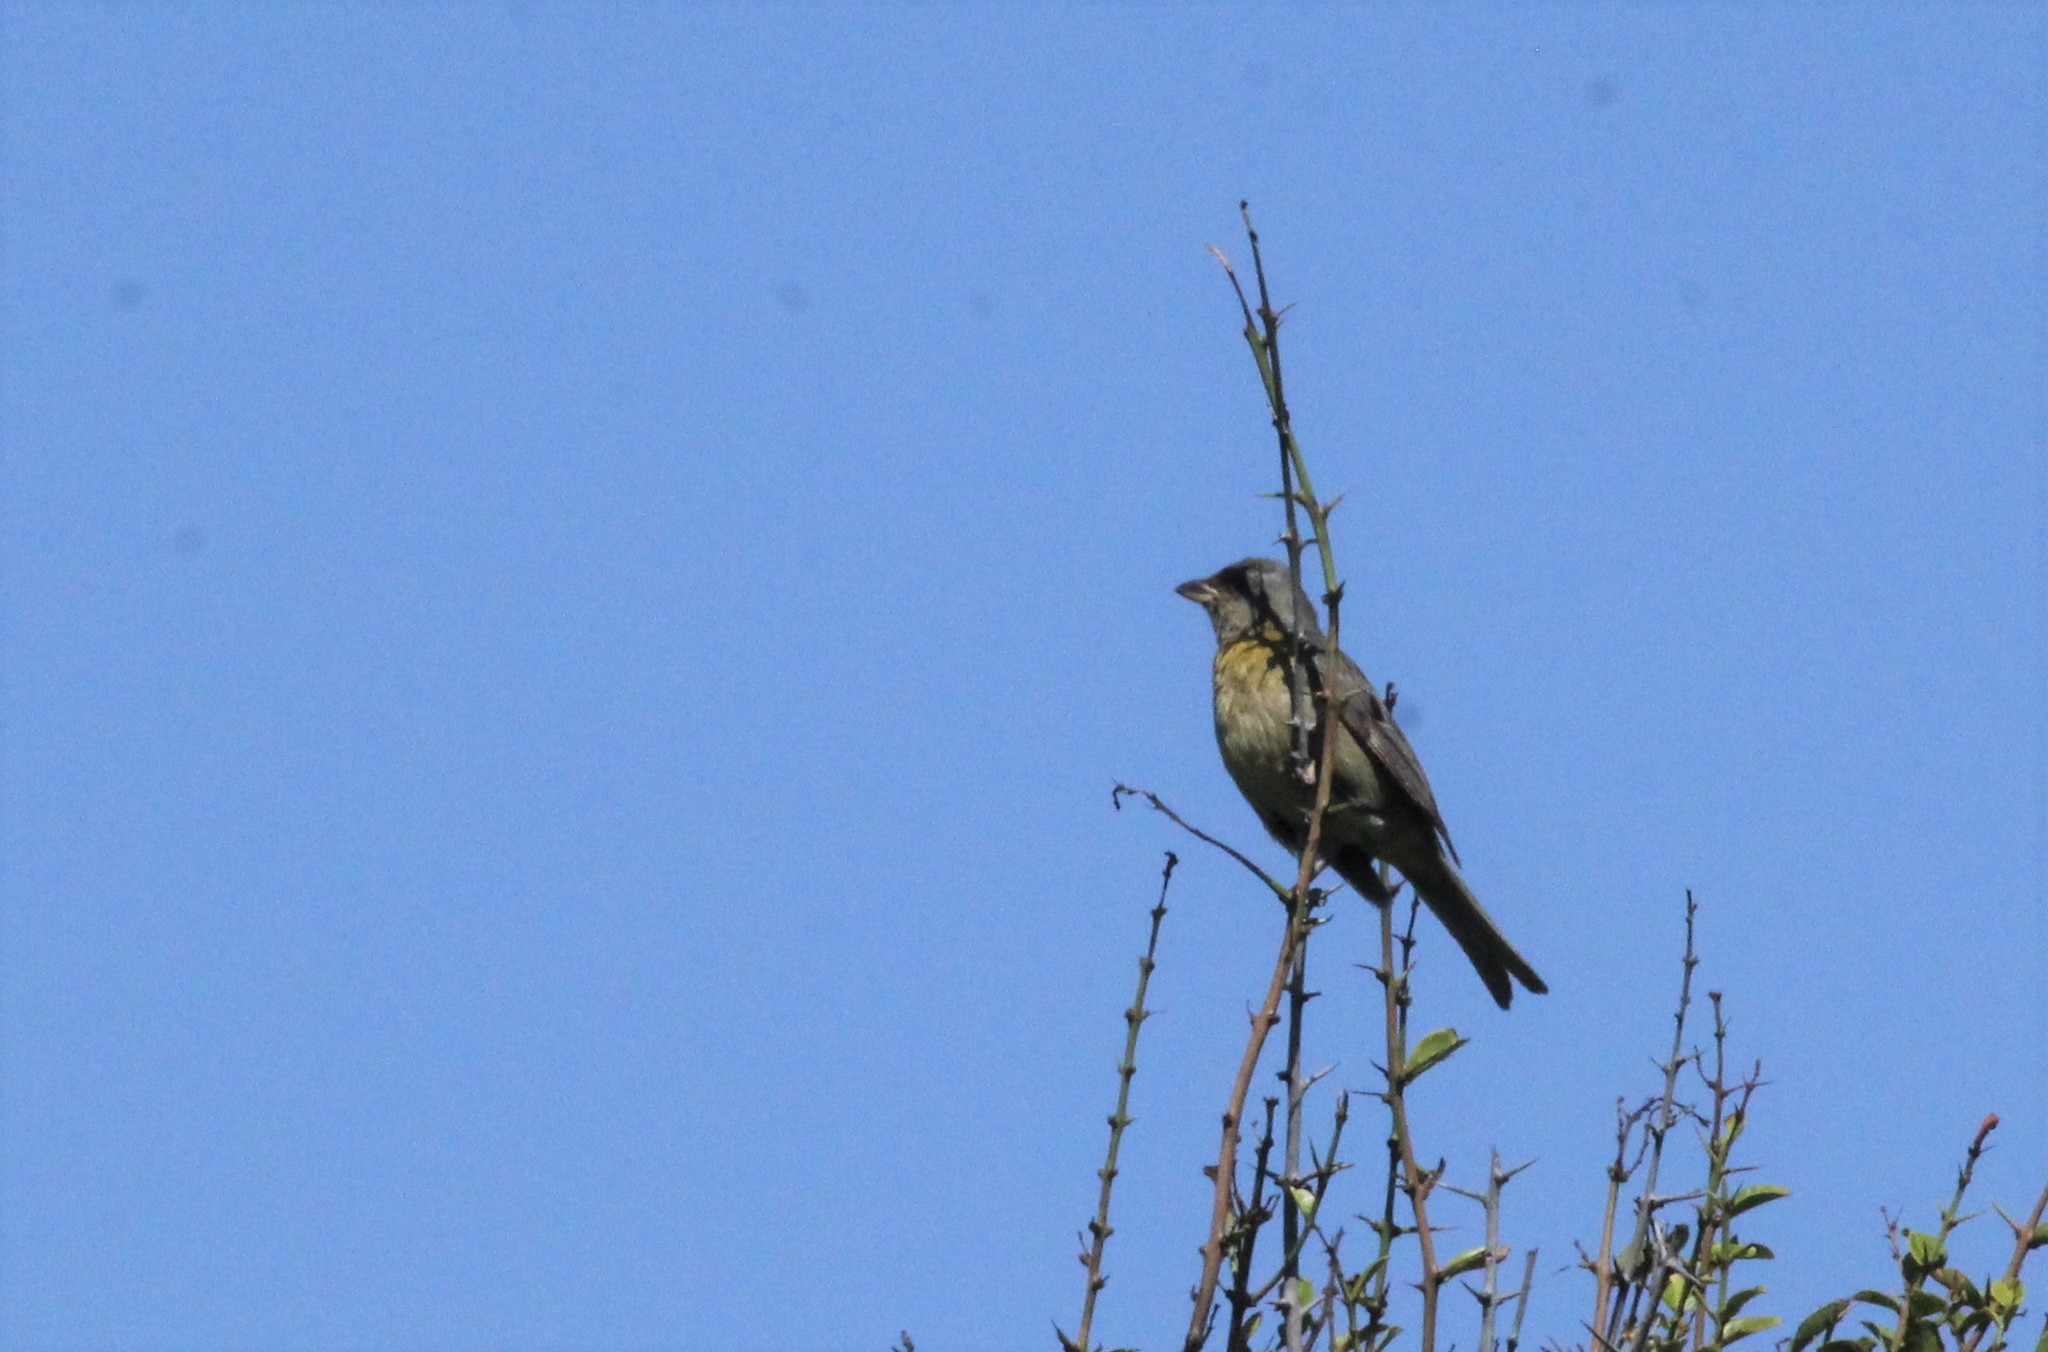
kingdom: Animalia
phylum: Chordata
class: Aves
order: Passeriformes
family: Thraupidae
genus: Rauenia
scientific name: Rauenia bonariensis
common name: Blue-and-yellow tanager
